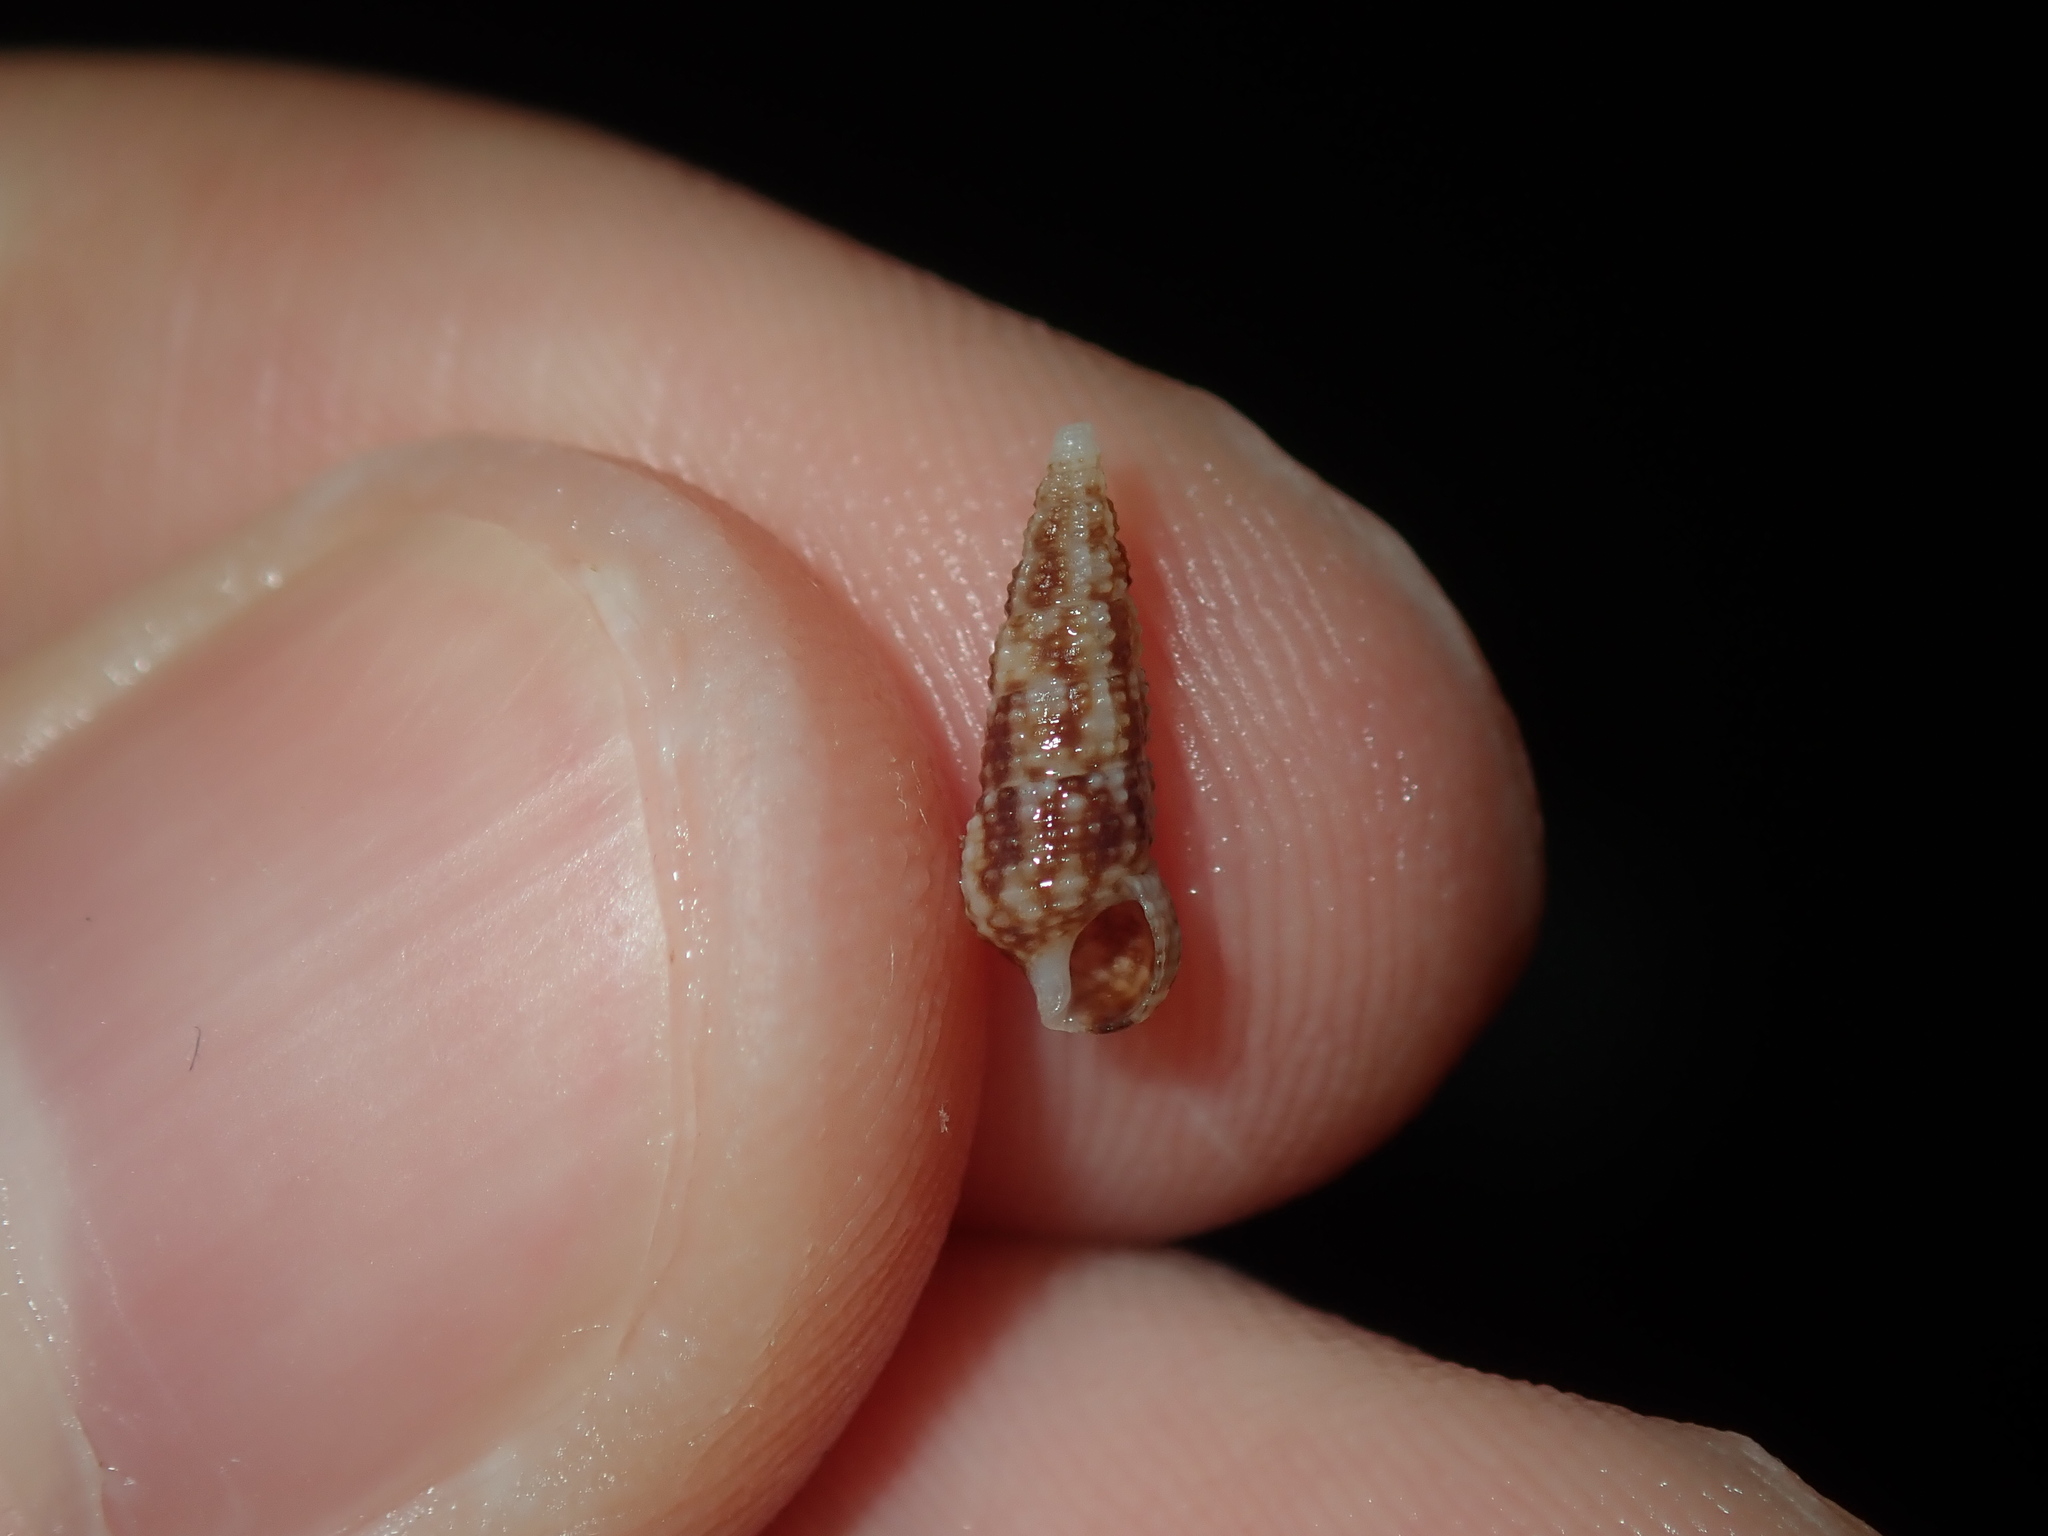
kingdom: Animalia
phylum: Mollusca
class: Gastropoda
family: Cerithiidae
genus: Cacozeliana
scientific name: Cacozeliana granarium
